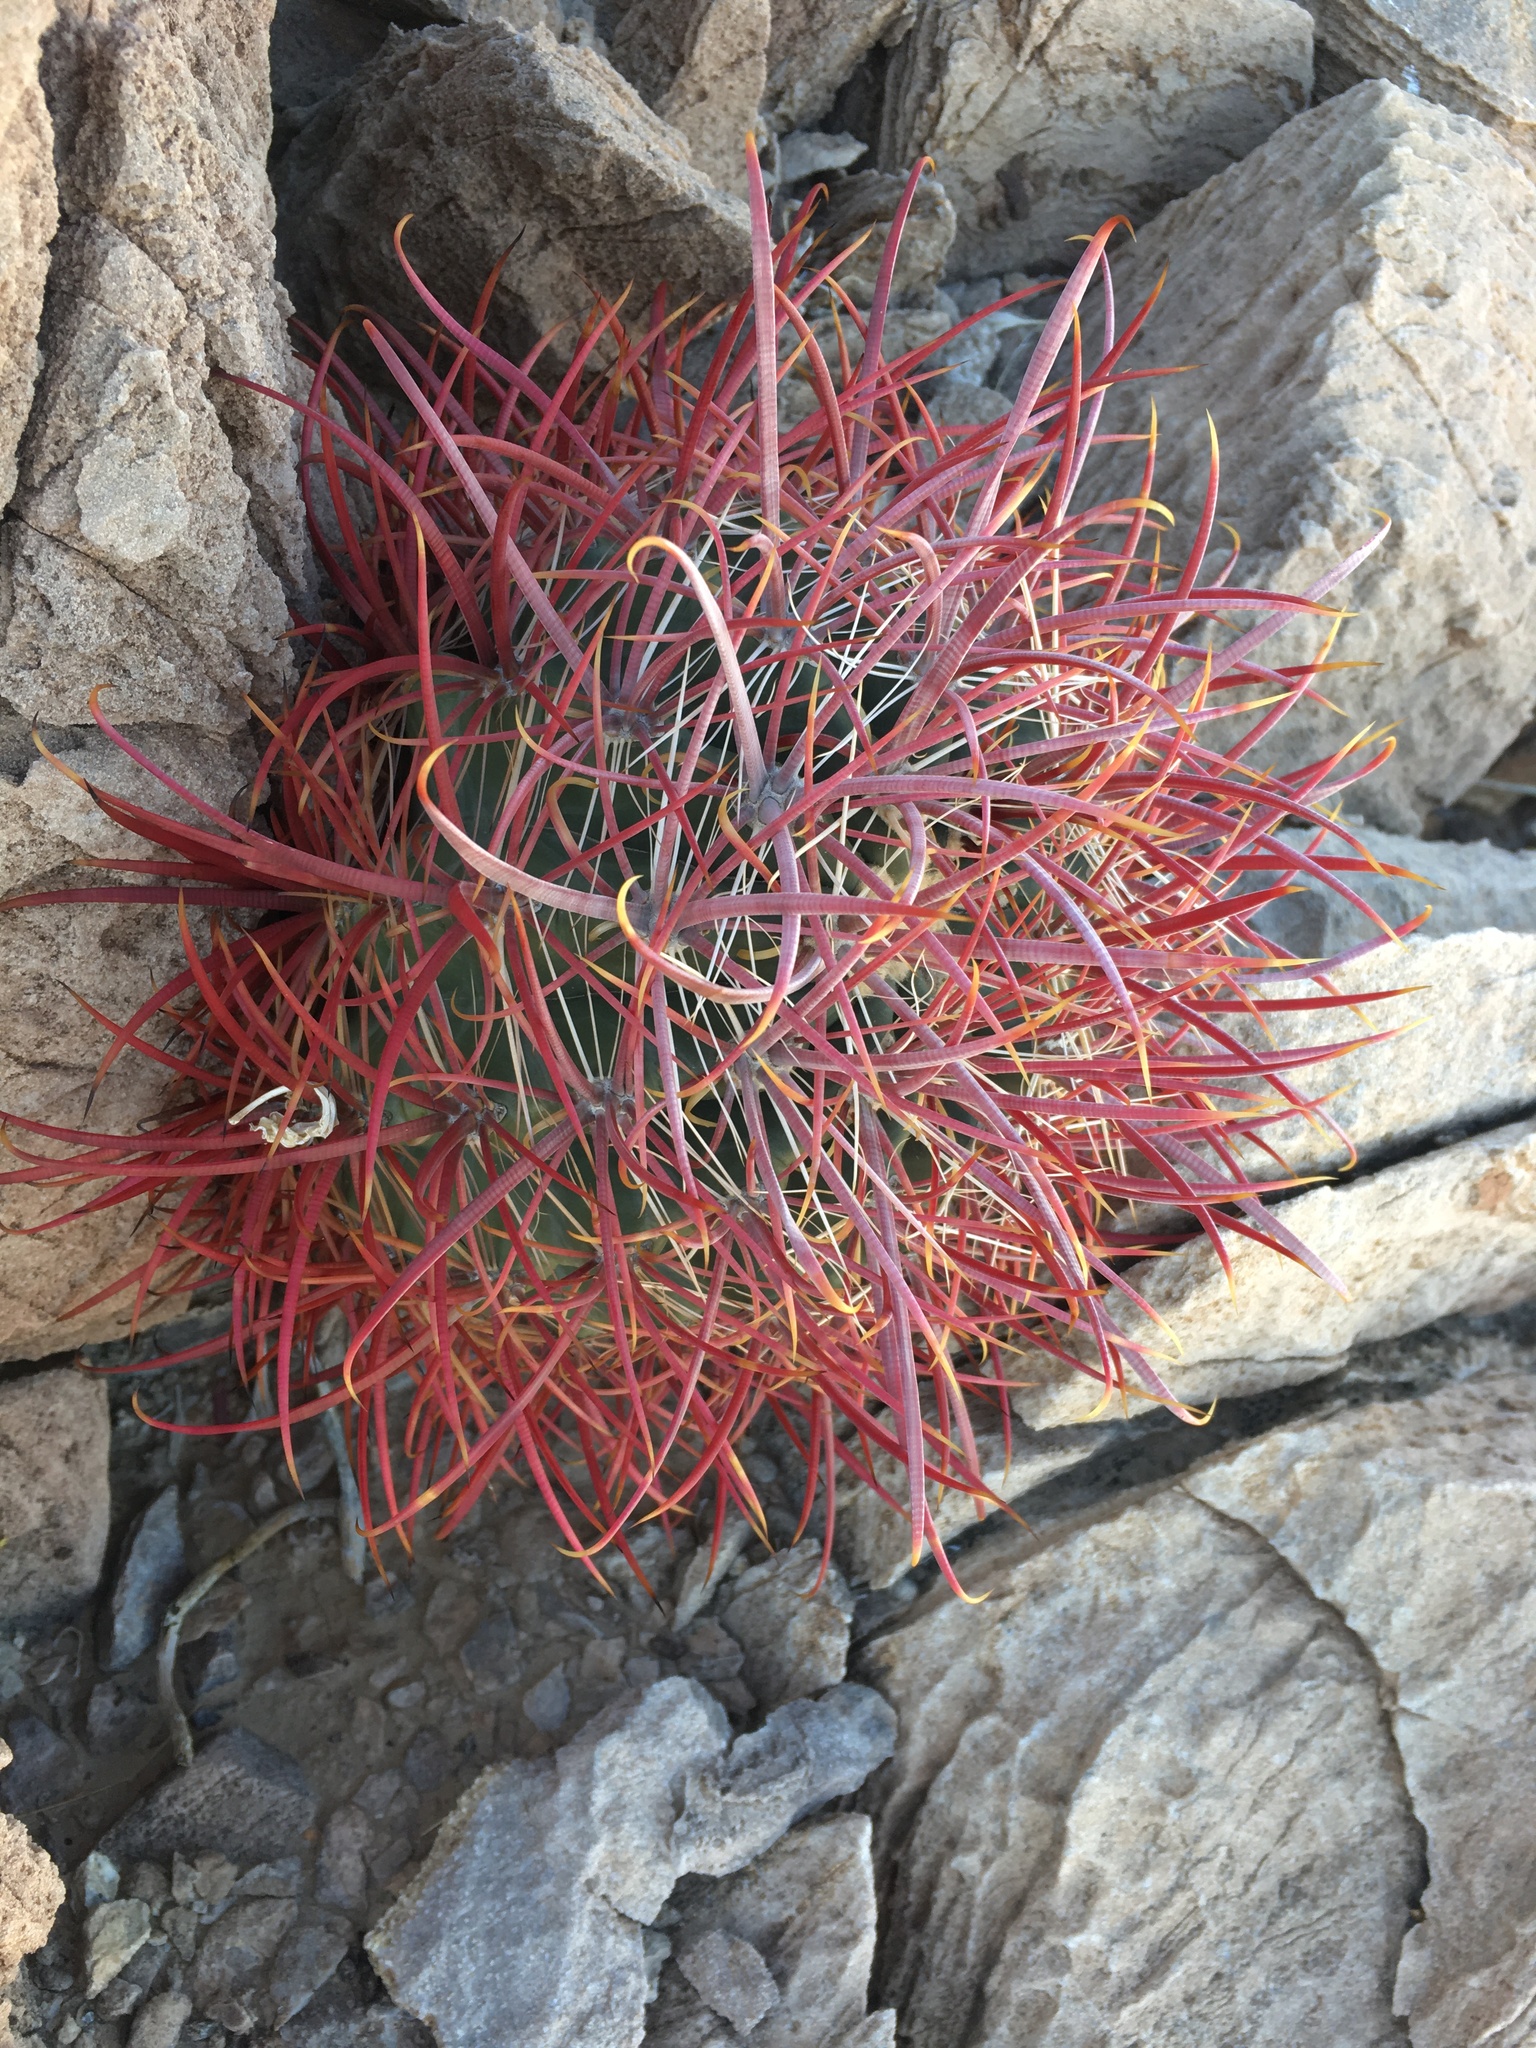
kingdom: Plantae
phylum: Tracheophyta
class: Magnoliopsida
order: Caryophyllales
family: Cactaceae
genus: Ferocactus
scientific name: Ferocactus cylindraceus
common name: California barrel cactus
